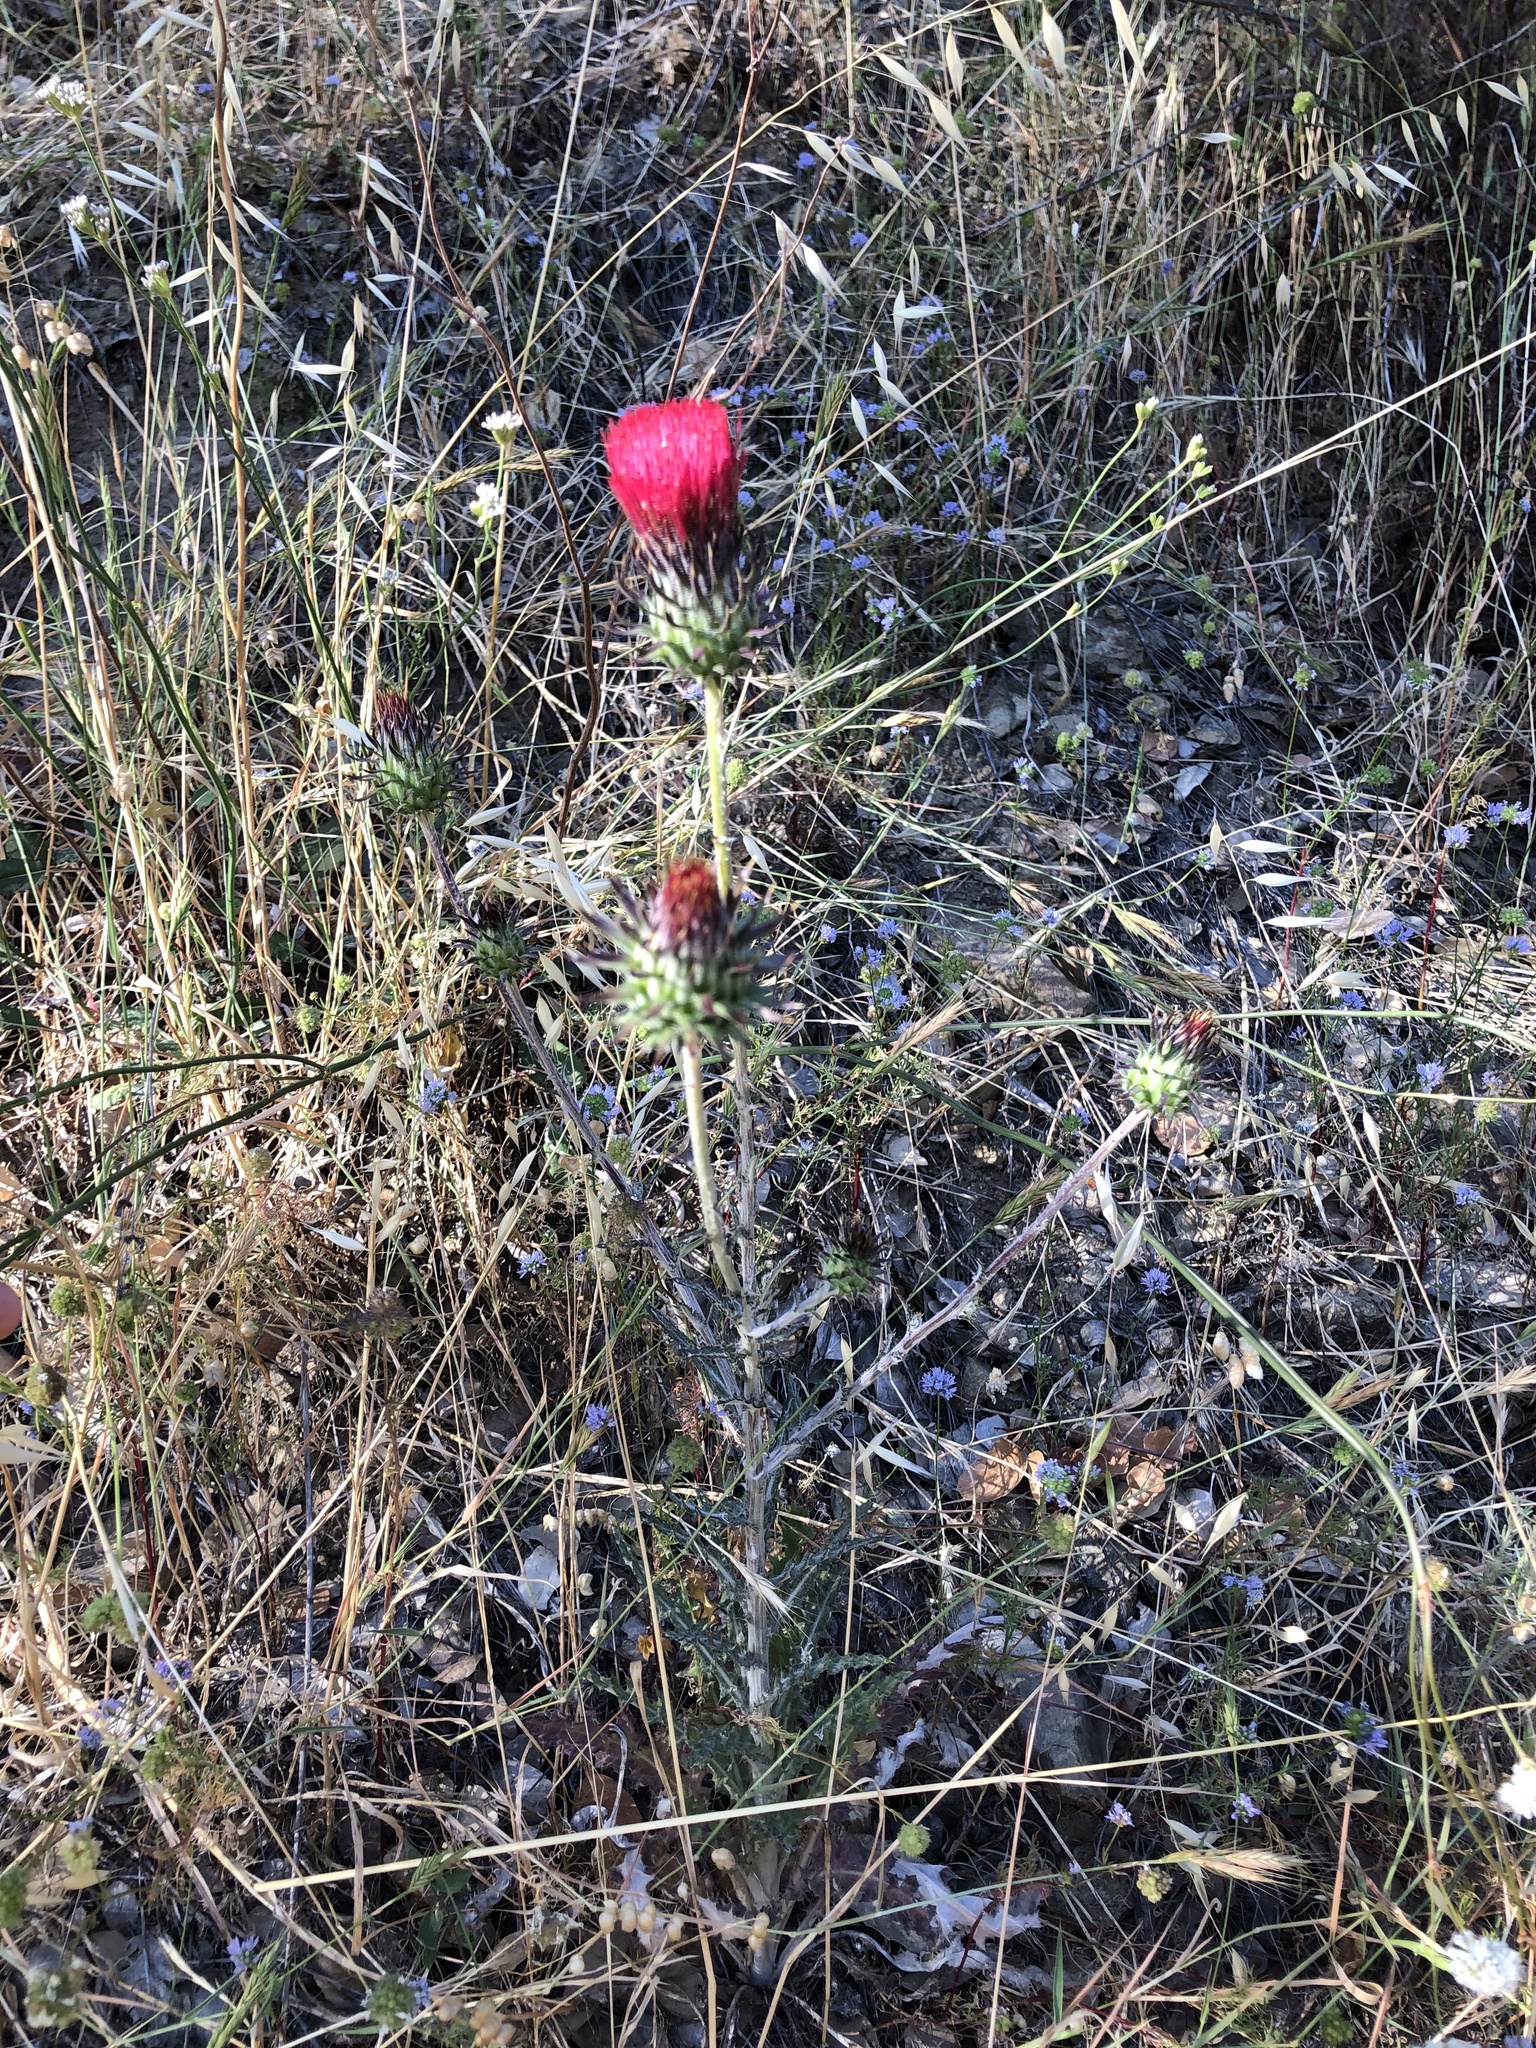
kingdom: Plantae
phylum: Tracheophyta
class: Magnoliopsida
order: Asterales
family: Asteraceae
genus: Cirsium
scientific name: Cirsium occidentale
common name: Western thistle
